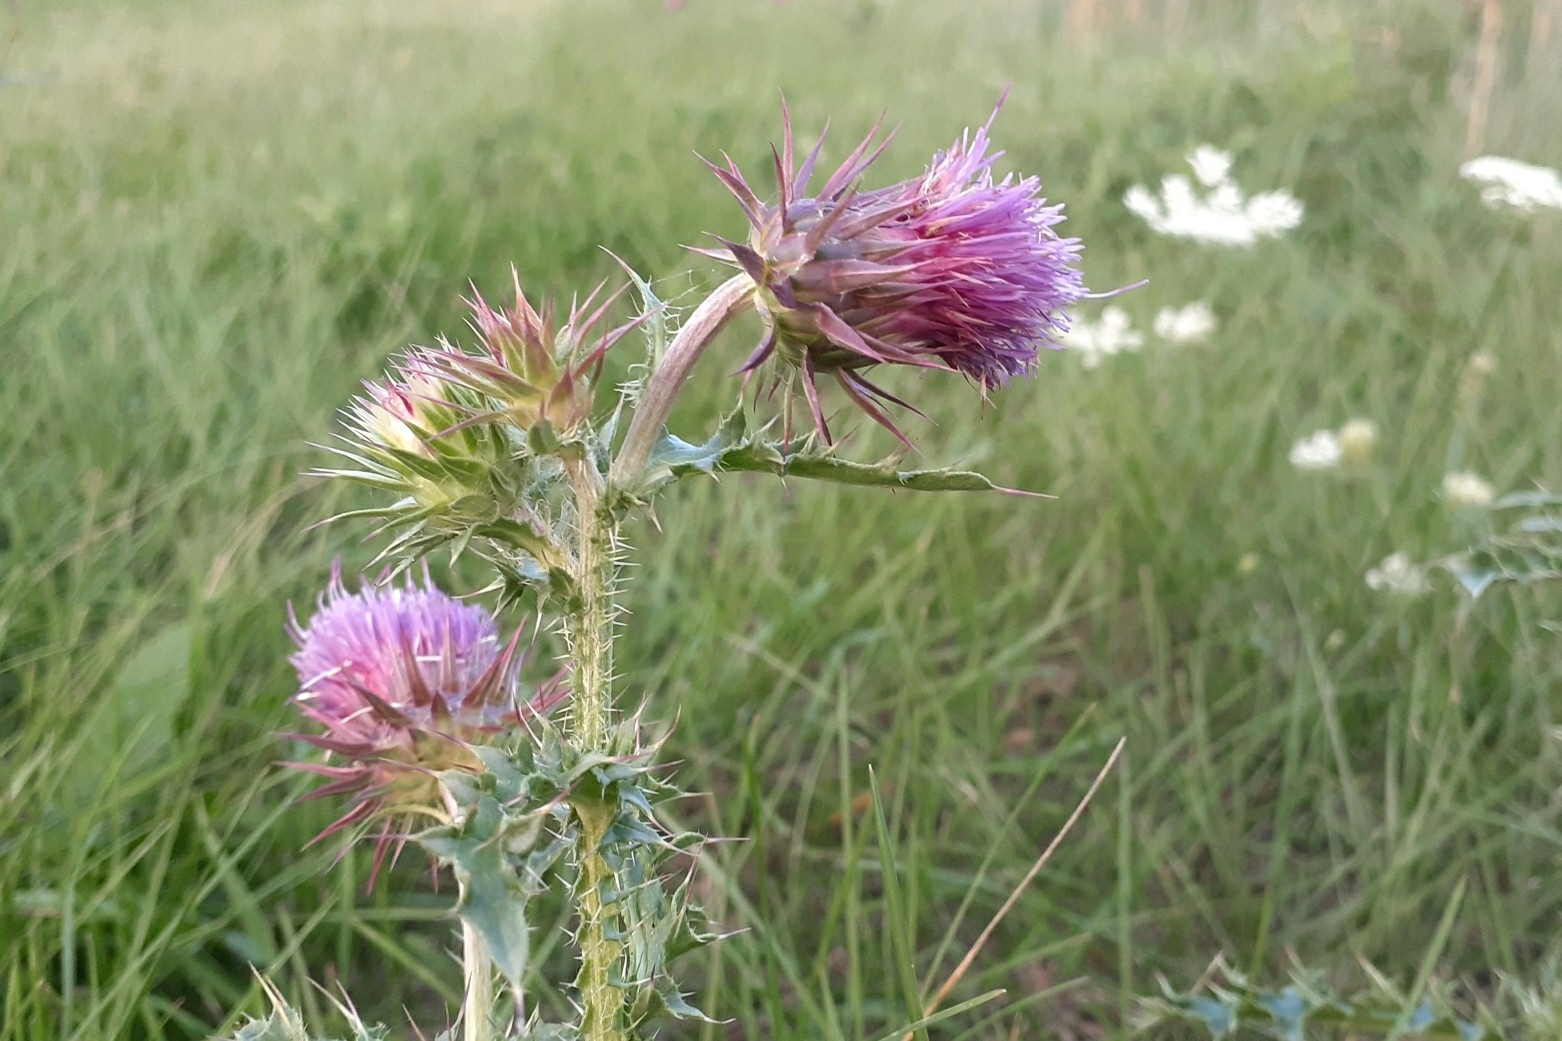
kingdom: Plantae
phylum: Tracheophyta
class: Magnoliopsida
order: Asterales
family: Asteraceae
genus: Carduus
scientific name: Carduus nutans
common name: Musk thistle
